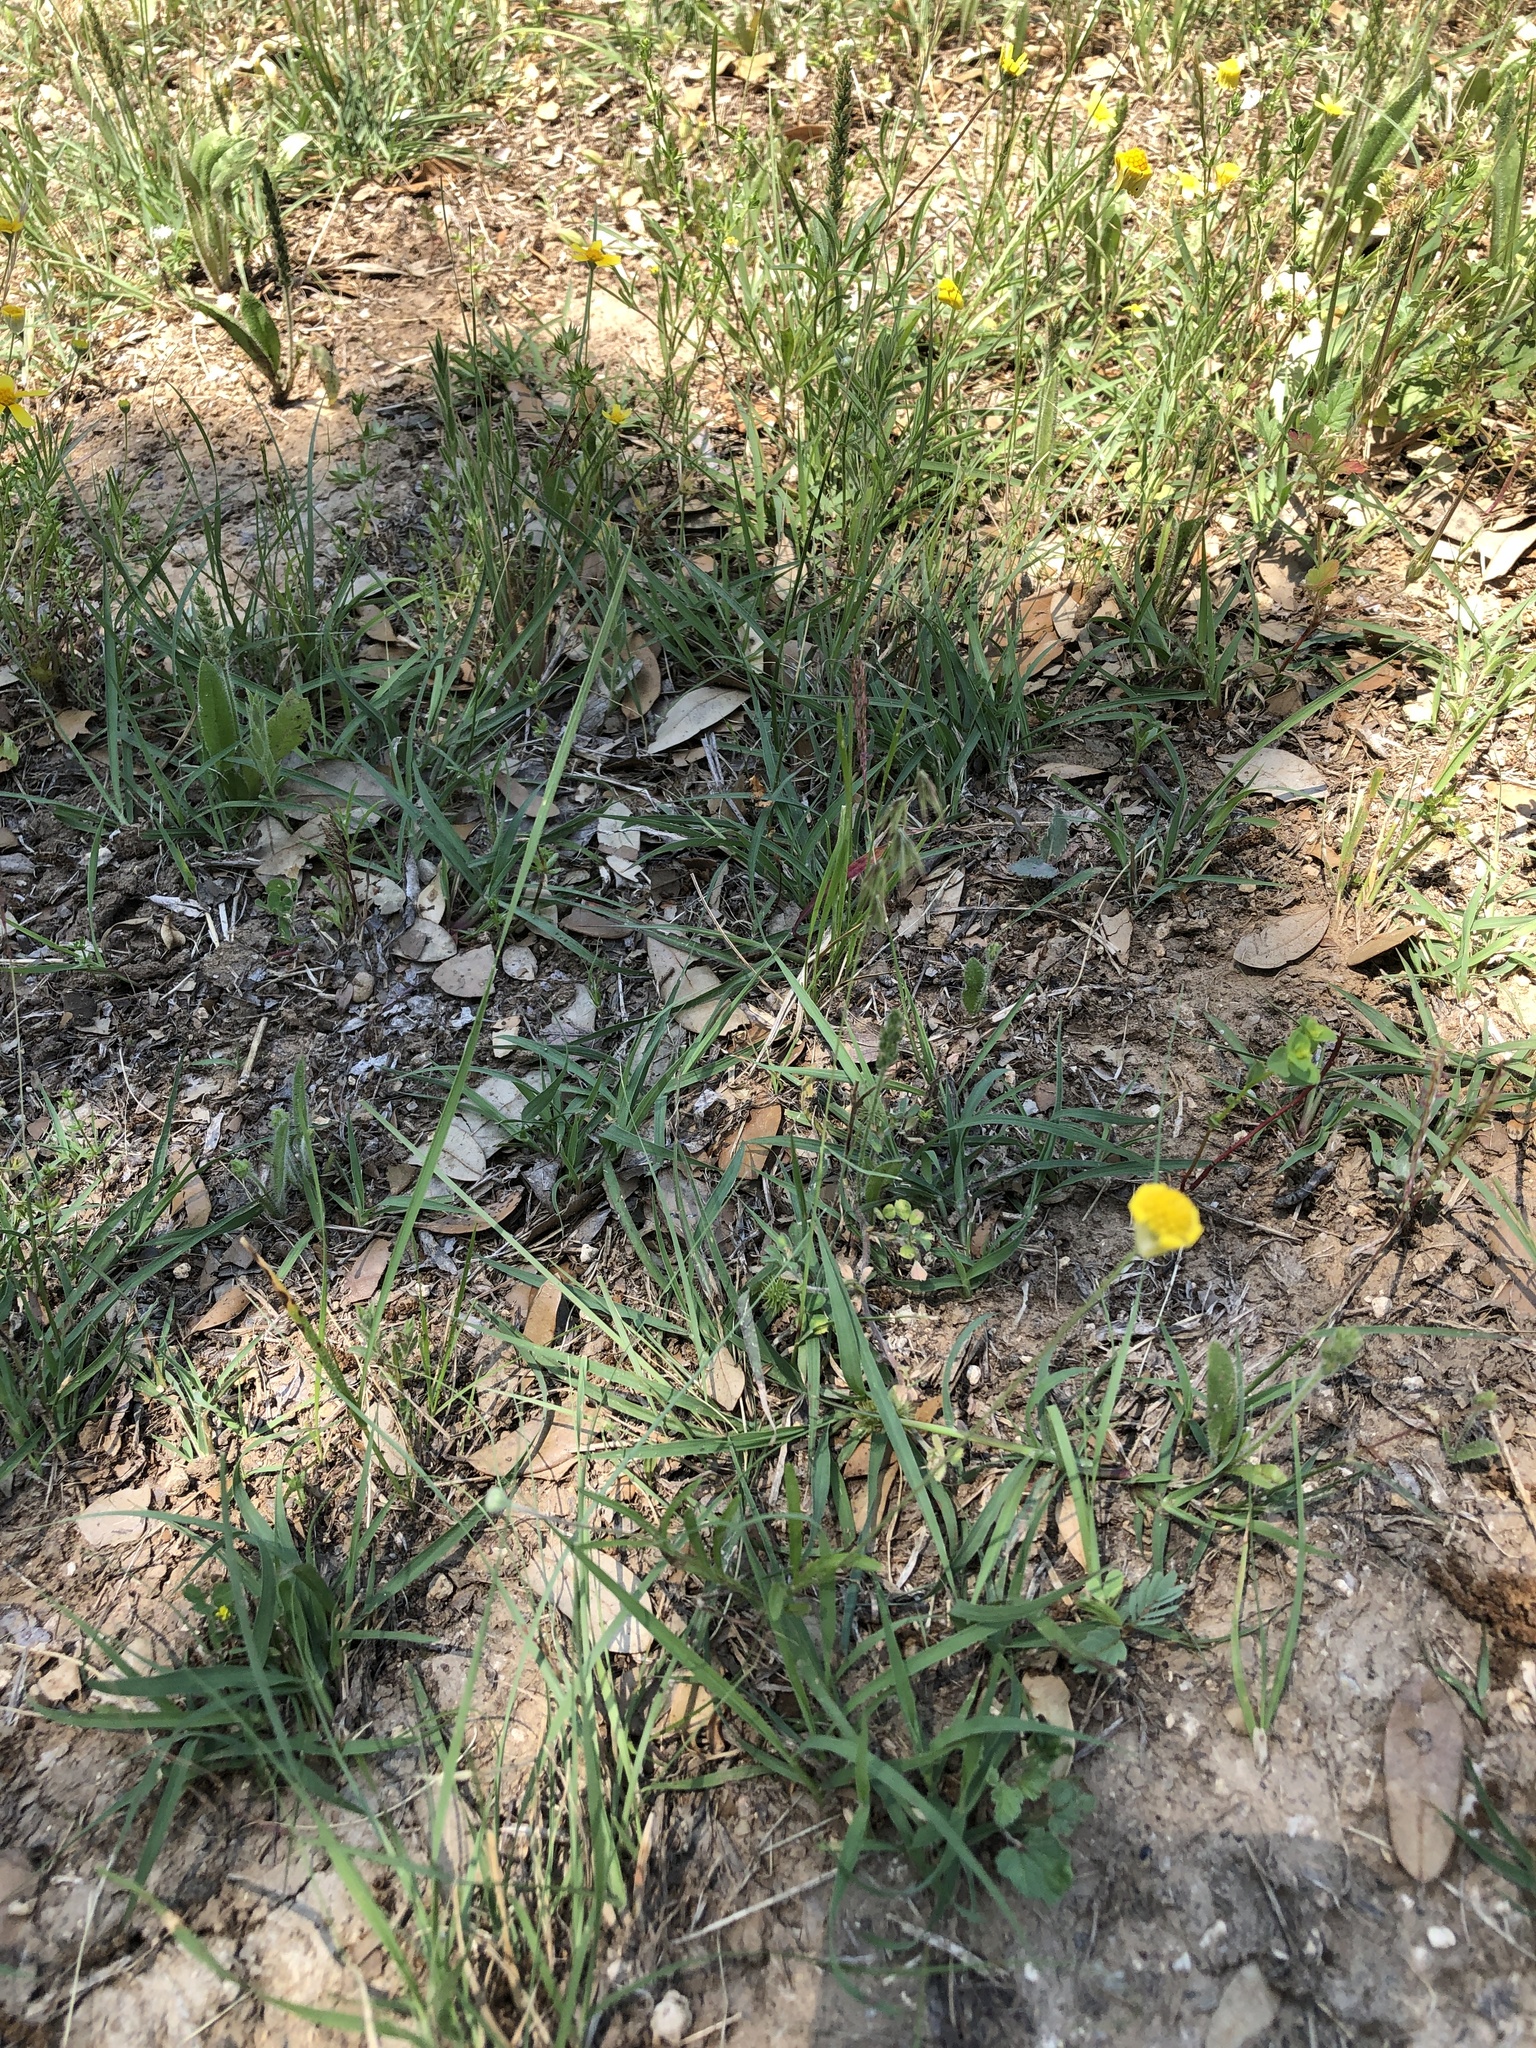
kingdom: Plantae
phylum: Tracheophyta
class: Liliopsida
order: Poales
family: Poaceae
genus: Bouteloua
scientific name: Bouteloua rigidiseta
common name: Texas grama
